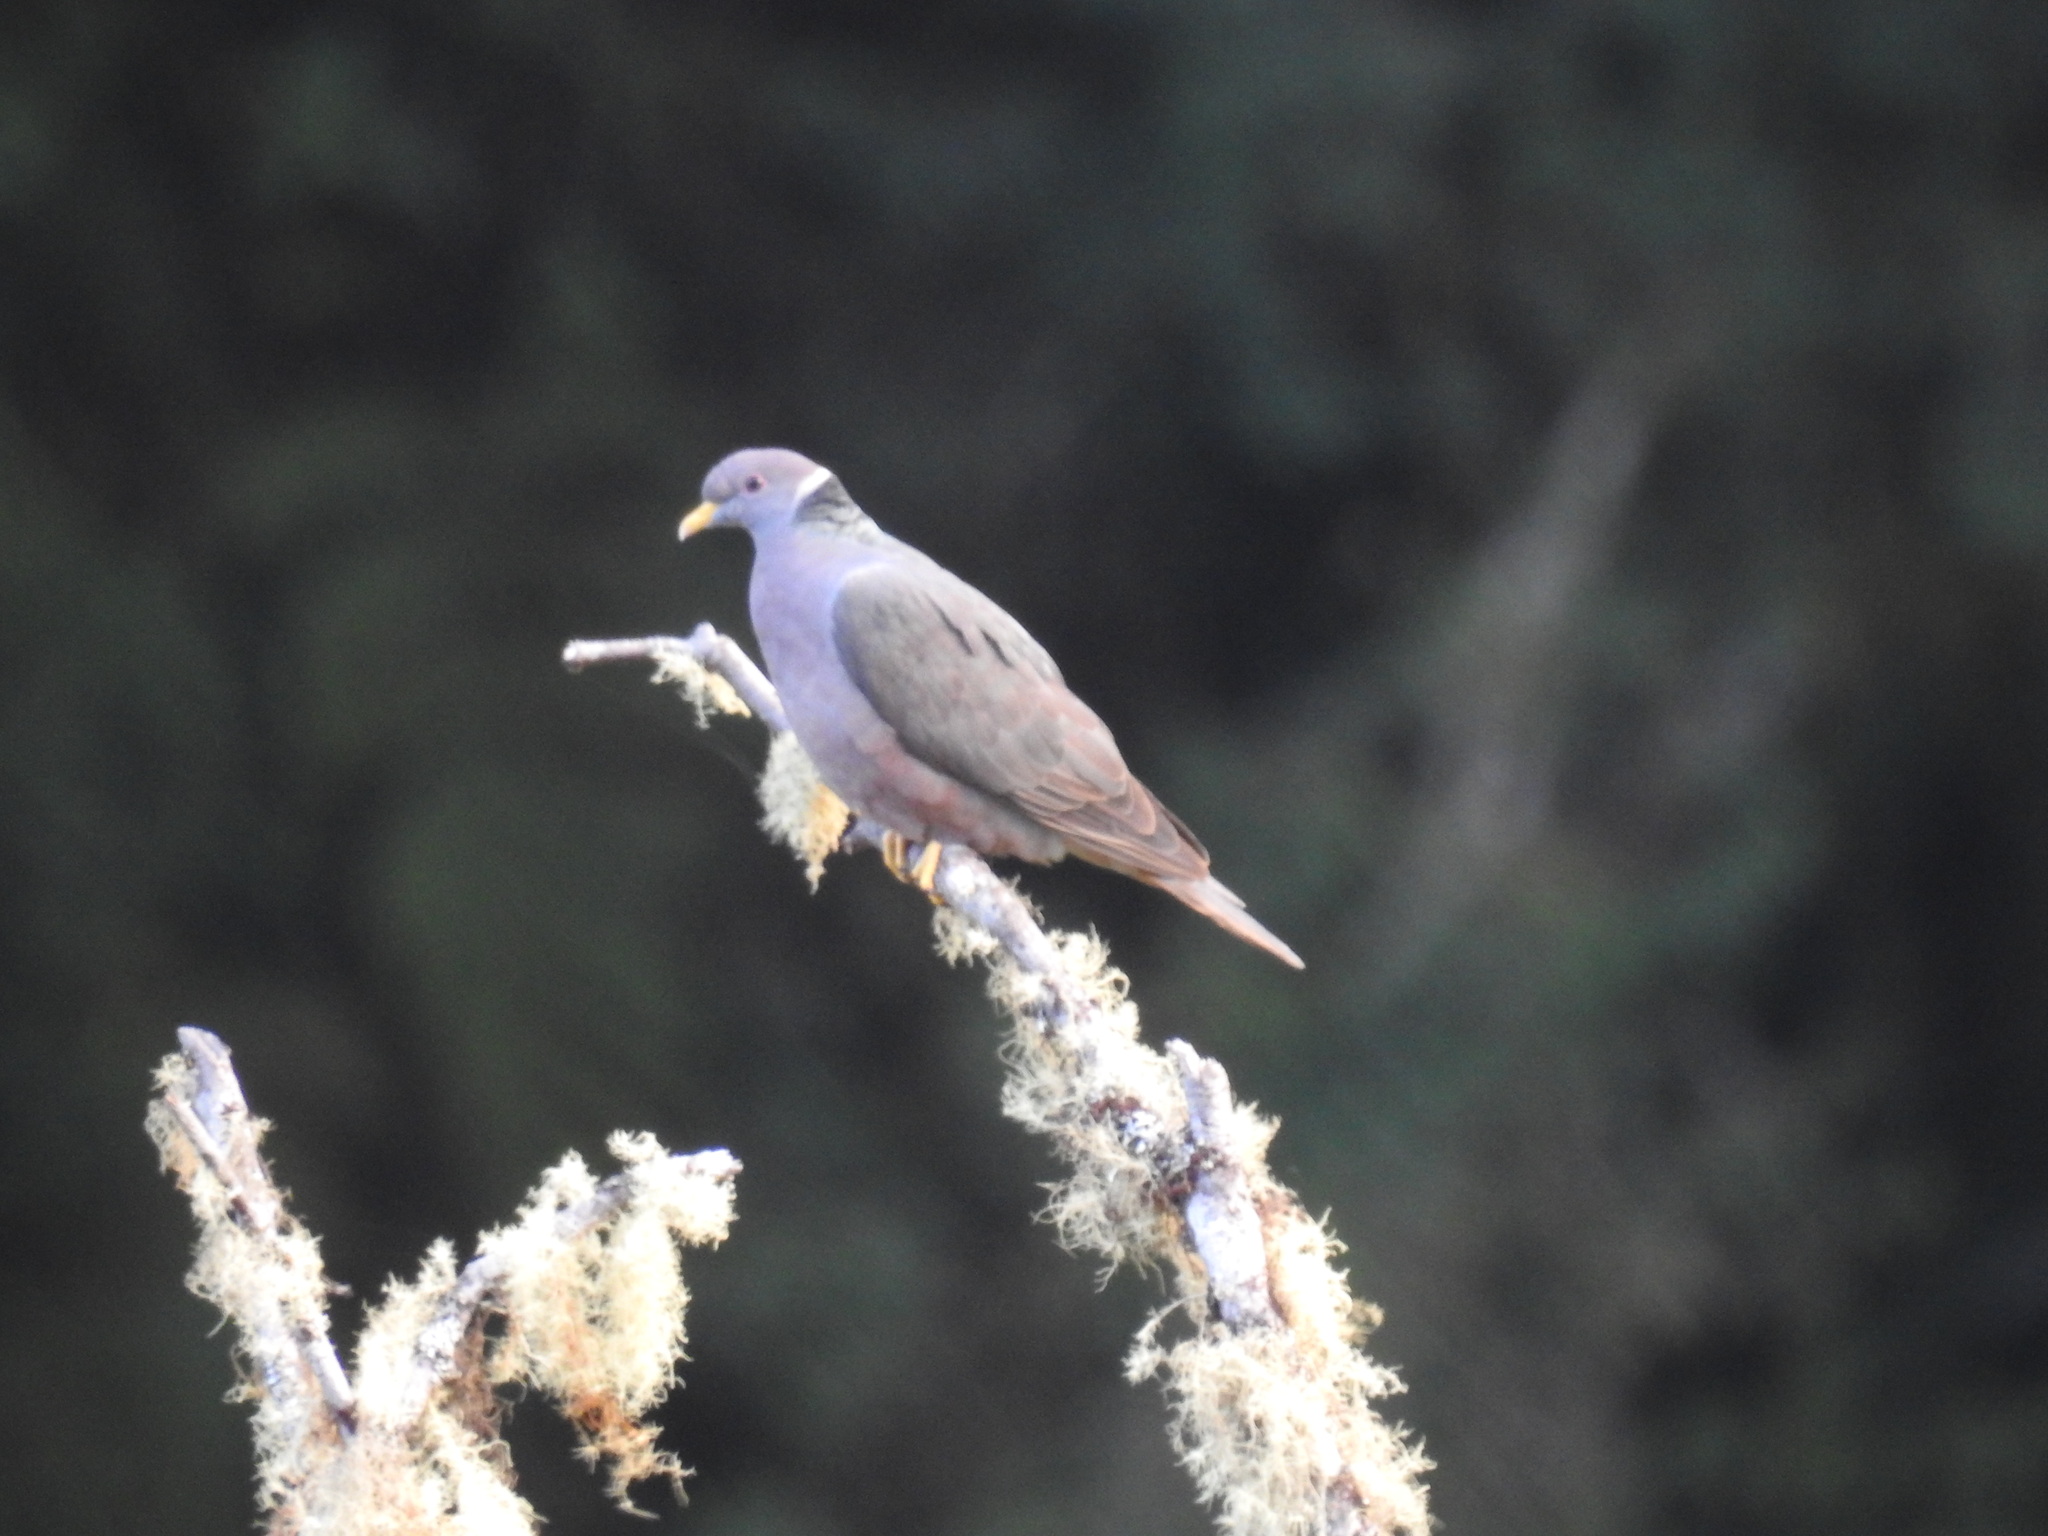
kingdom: Animalia
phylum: Chordata
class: Aves
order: Columbiformes
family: Columbidae
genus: Patagioenas
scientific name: Patagioenas fasciata
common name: Band-tailed pigeon
